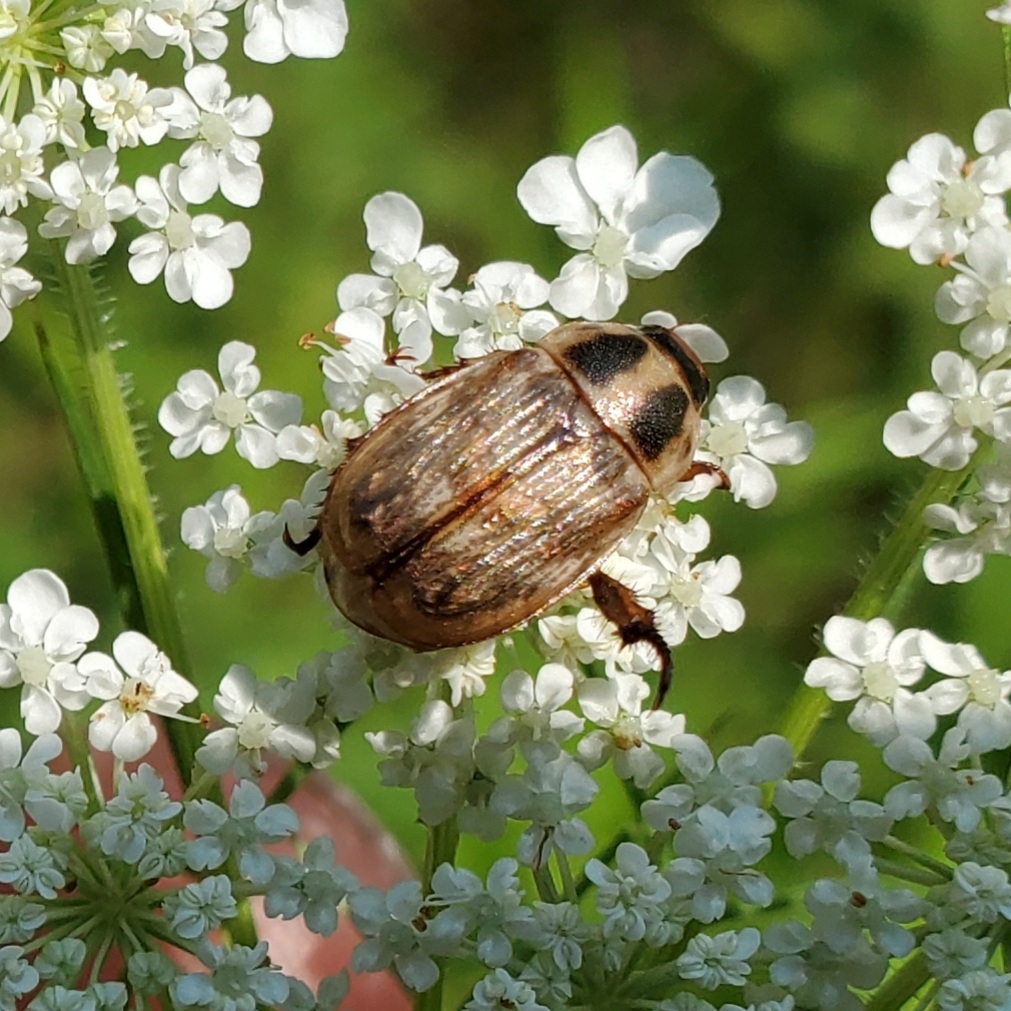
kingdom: Animalia
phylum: Arthropoda
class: Insecta
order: Coleoptera
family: Scarabaeidae
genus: Exomala
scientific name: Exomala orientalis
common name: Oriental beetle
